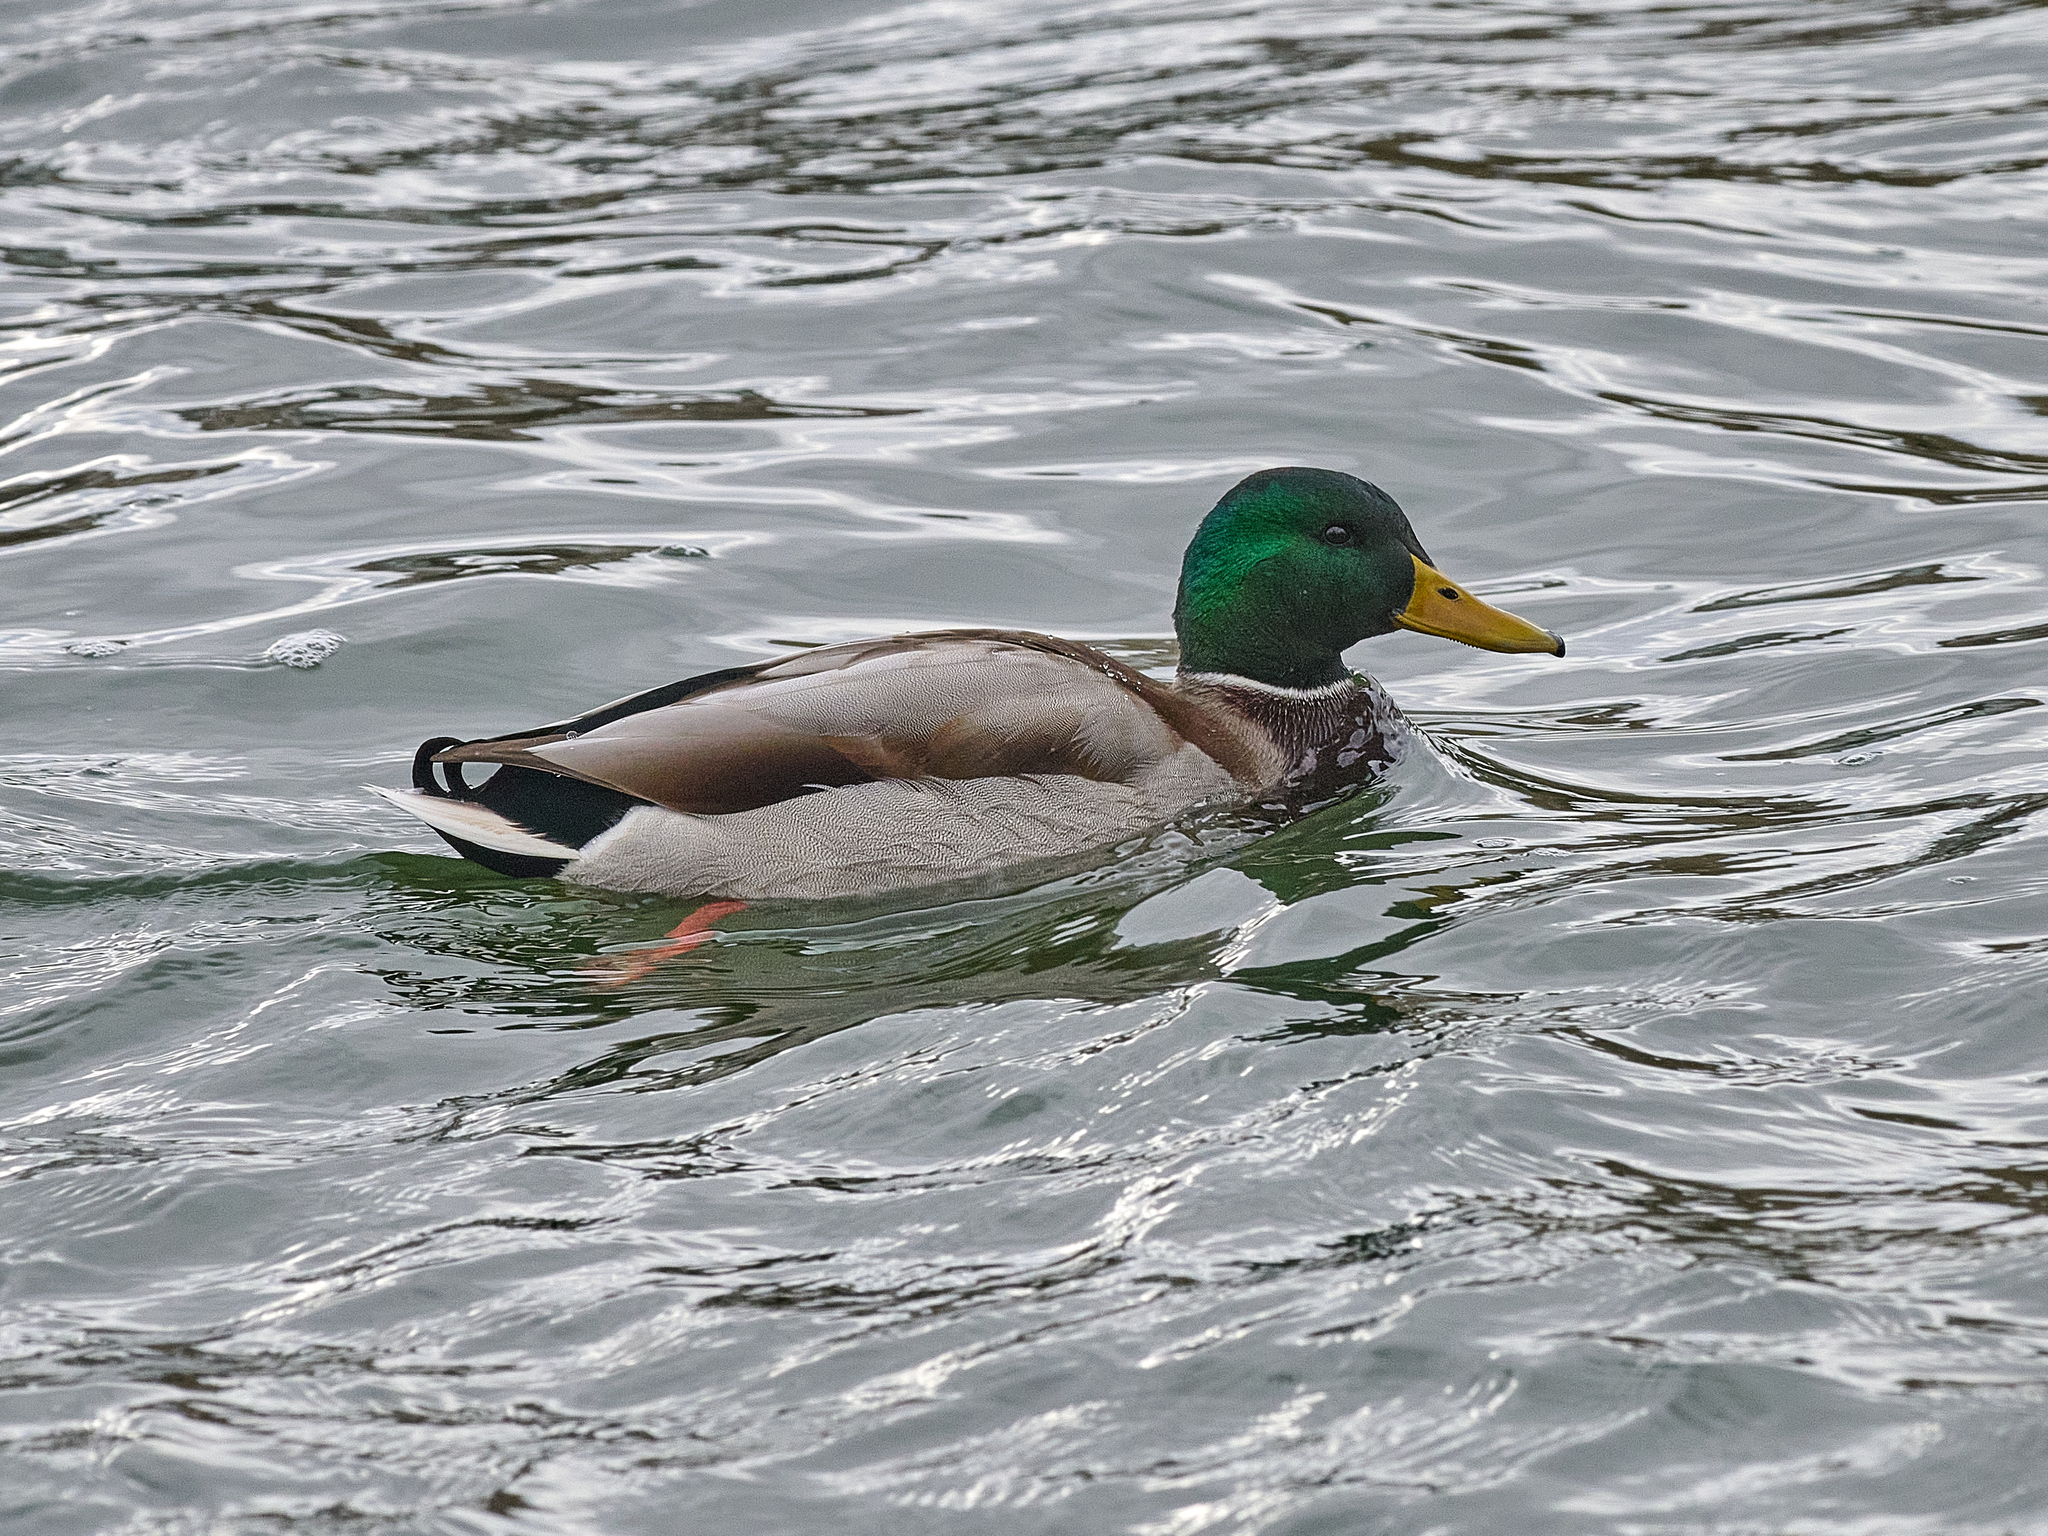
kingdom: Animalia
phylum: Chordata
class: Aves
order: Anseriformes
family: Anatidae
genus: Anas
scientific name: Anas platyrhynchos
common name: Mallard
